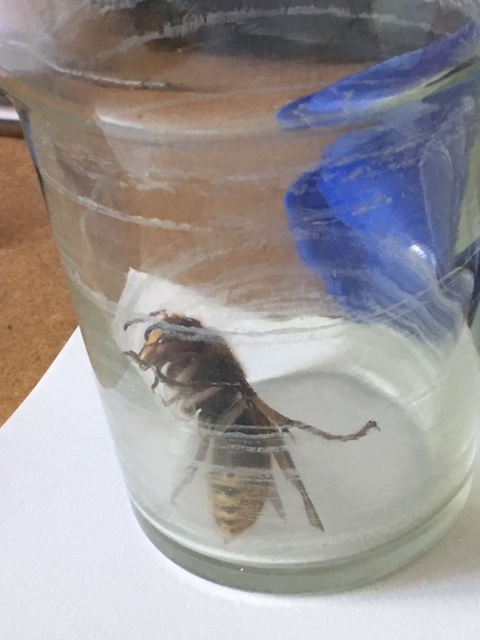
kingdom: Animalia
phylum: Arthropoda
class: Insecta
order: Hymenoptera
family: Vespidae
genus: Vespa
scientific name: Vespa crabro
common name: Hornet
